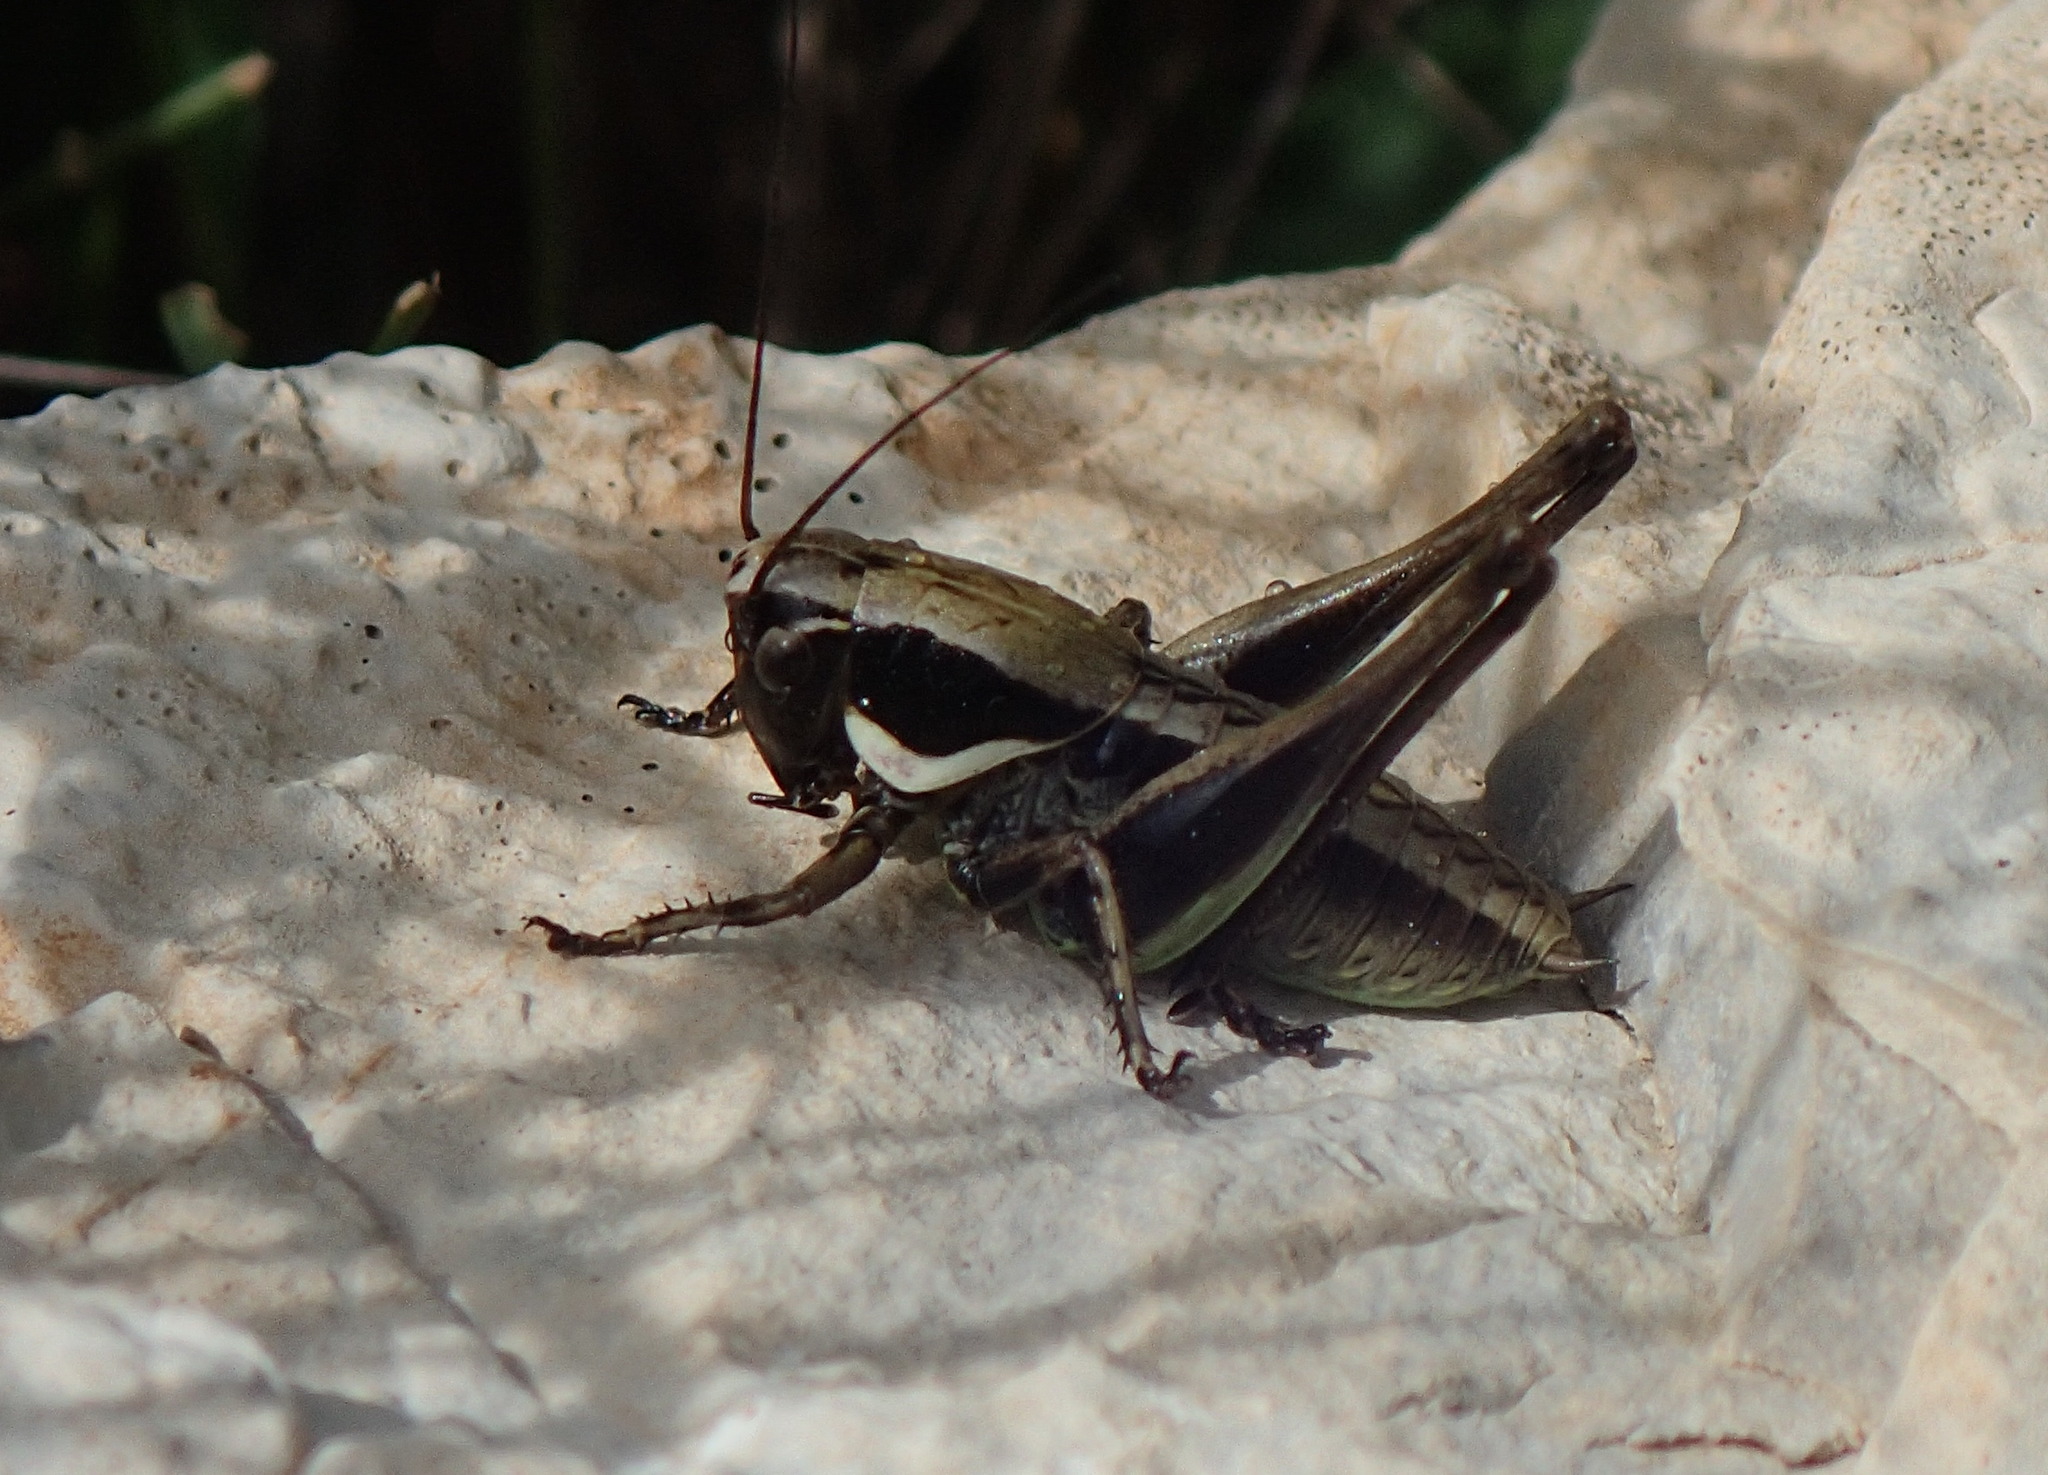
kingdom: Animalia
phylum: Arthropoda
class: Insecta
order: Orthoptera
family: Tettigoniidae
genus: Pholidoptera
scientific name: Pholidoptera femorata
